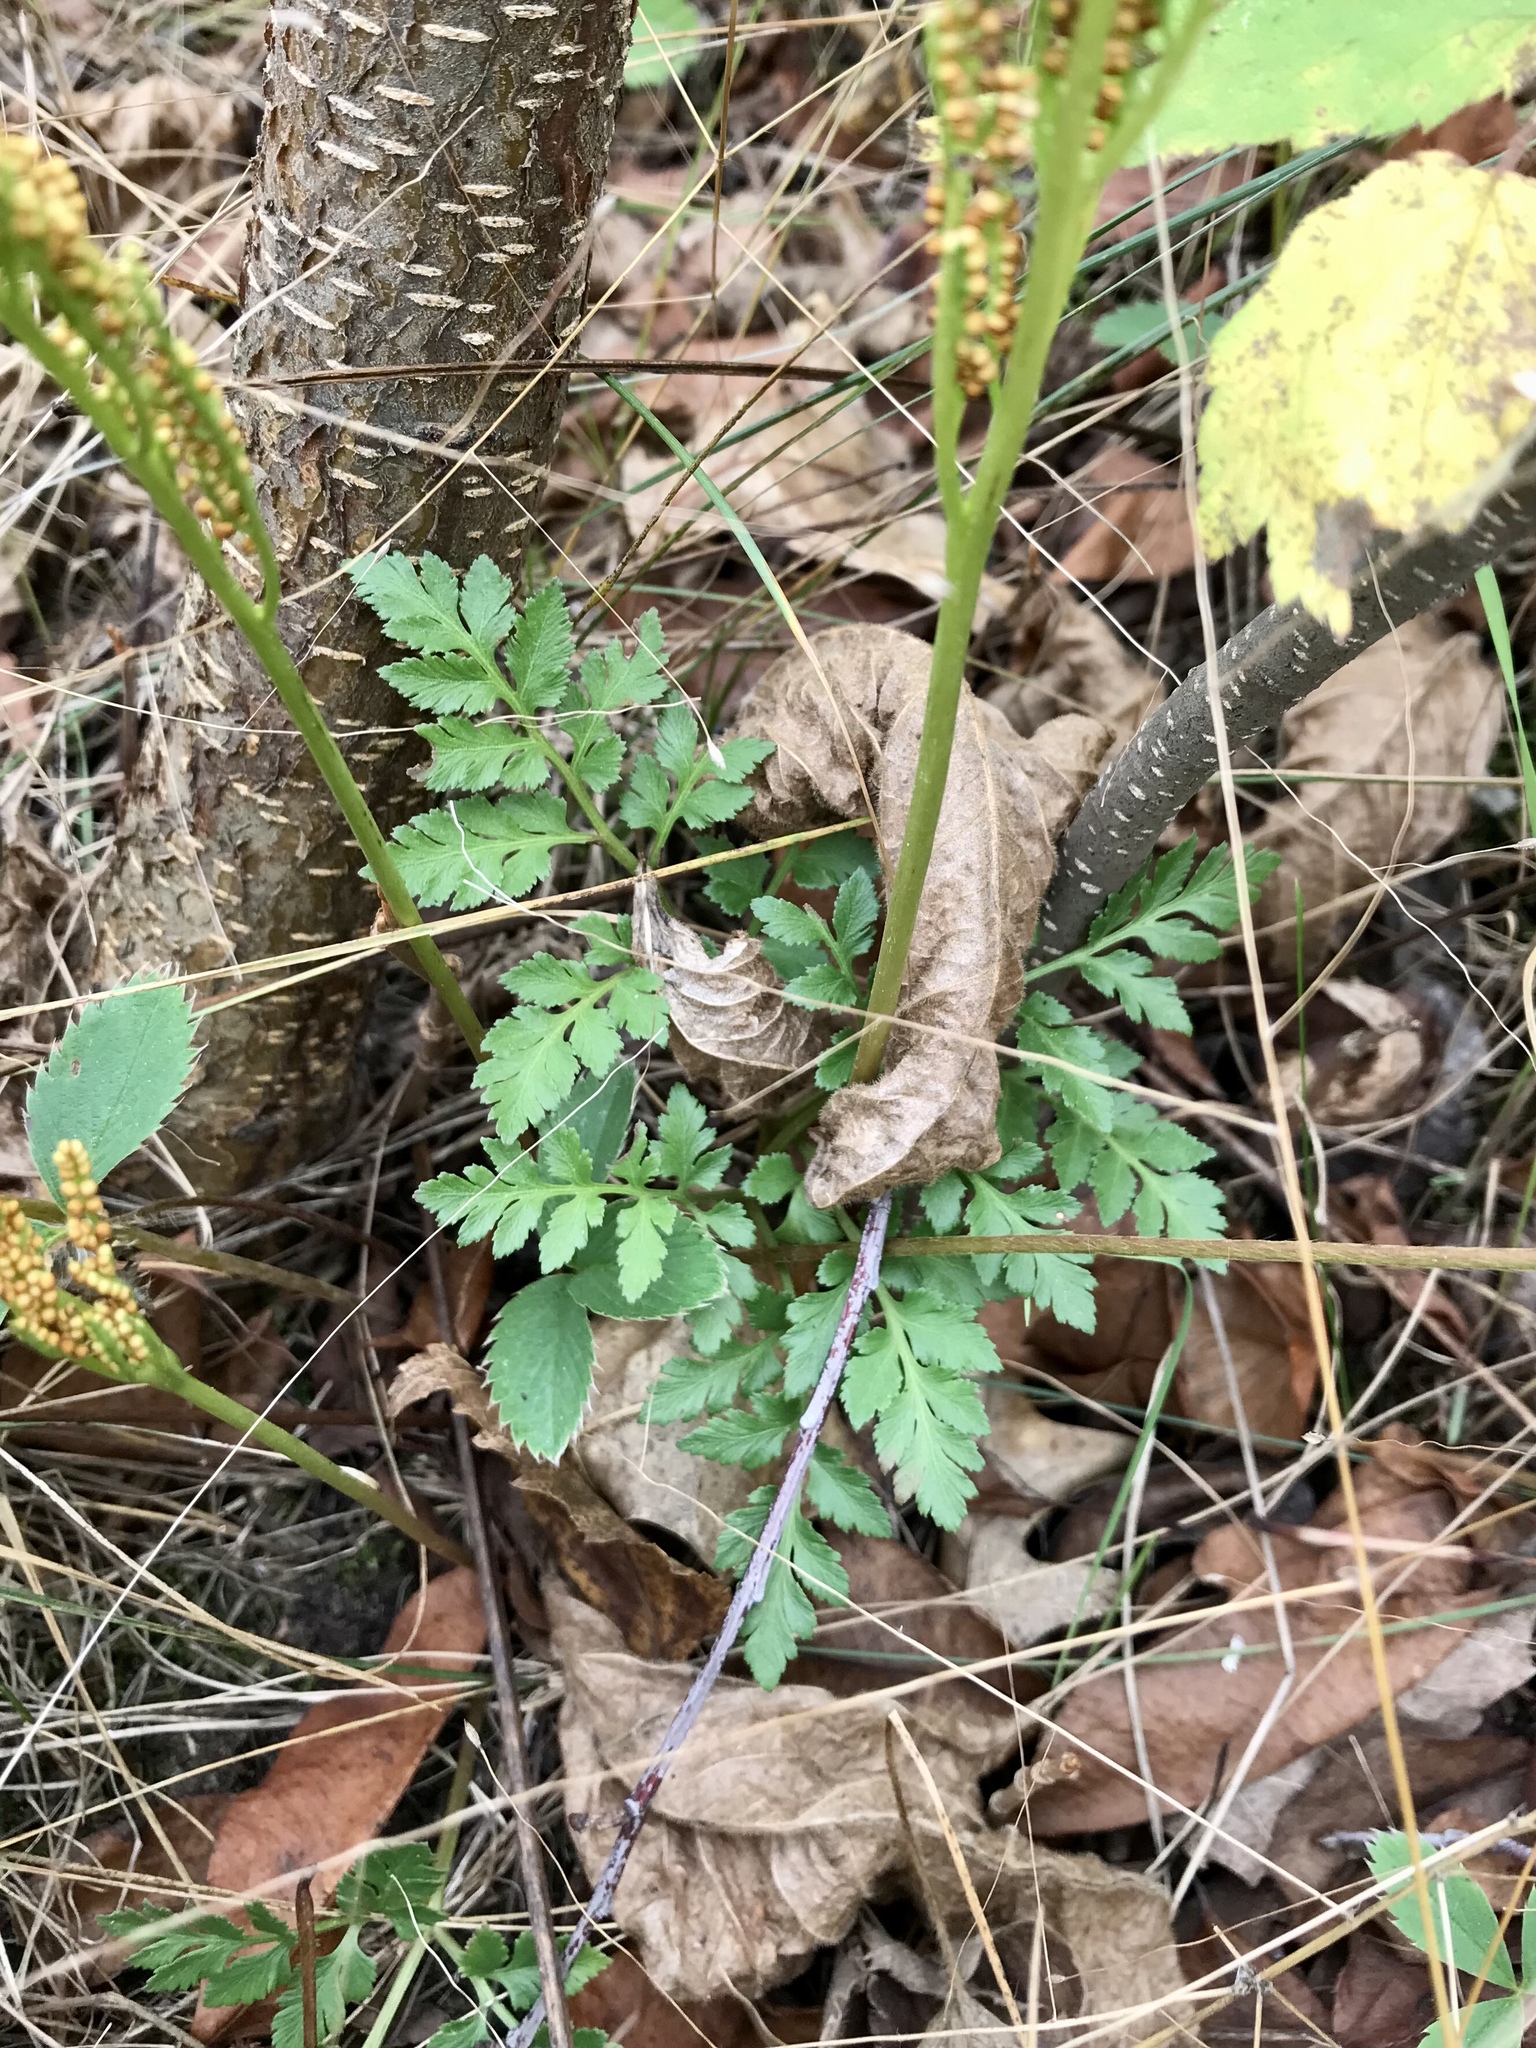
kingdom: Plantae
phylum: Tracheophyta
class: Polypodiopsida
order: Ophioglossales
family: Ophioglossaceae
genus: Sceptridium
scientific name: Sceptridium rugulosum
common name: Rugulose grapefern
